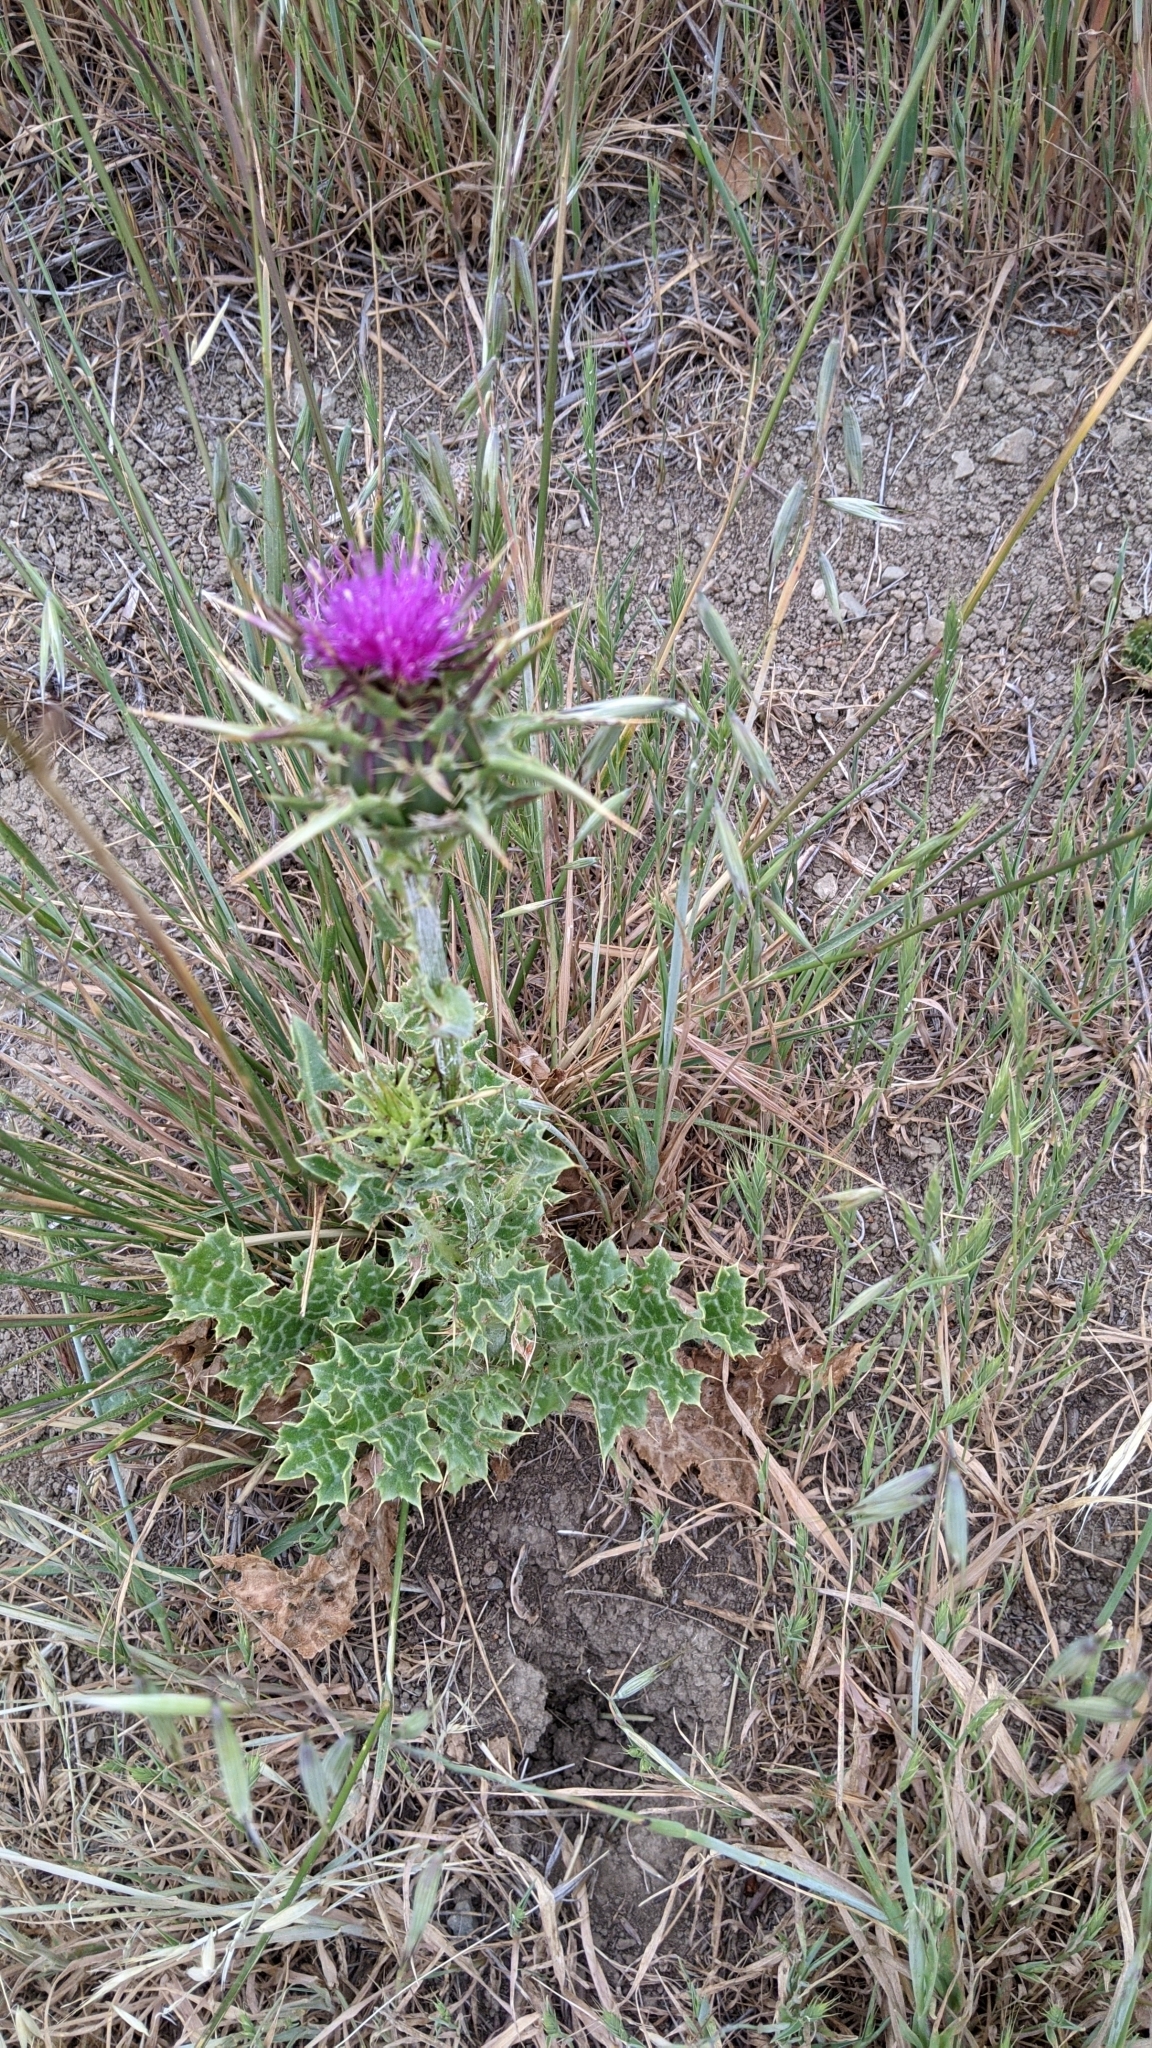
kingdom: Plantae
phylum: Tracheophyta
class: Magnoliopsida
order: Asterales
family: Asteraceae
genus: Silybum
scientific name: Silybum marianum
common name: Milk thistle
